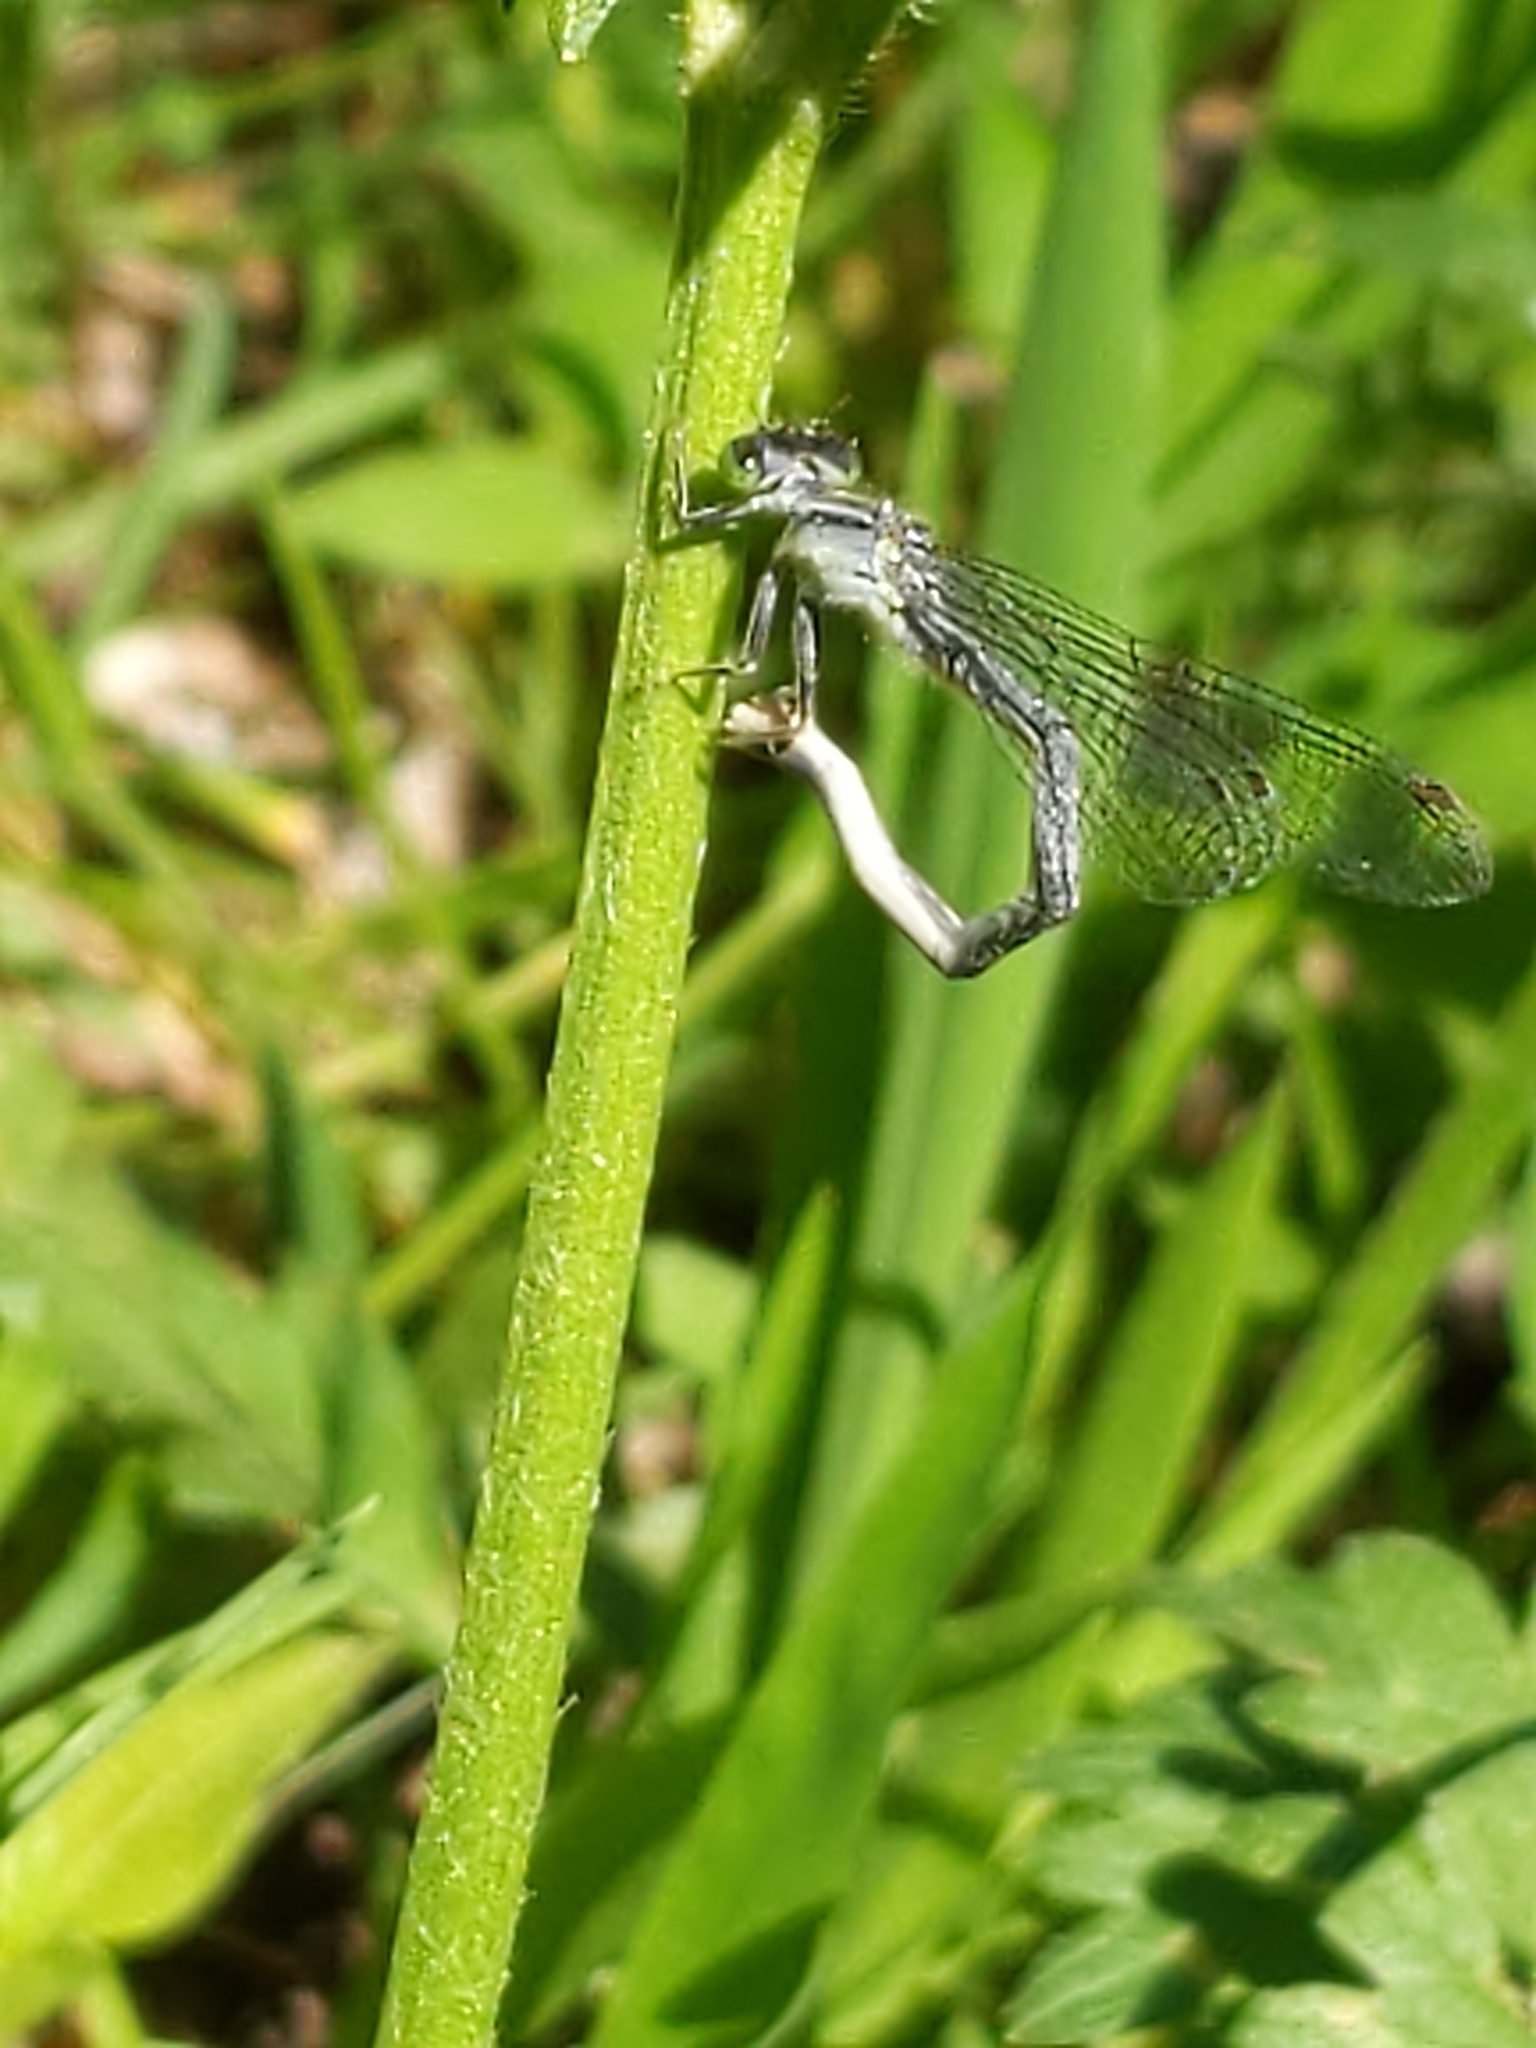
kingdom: Animalia
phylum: Arthropoda
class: Insecta
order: Odonata
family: Coenagrionidae
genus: Ischnura
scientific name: Ischnura verticalis
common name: Eastern forktail
